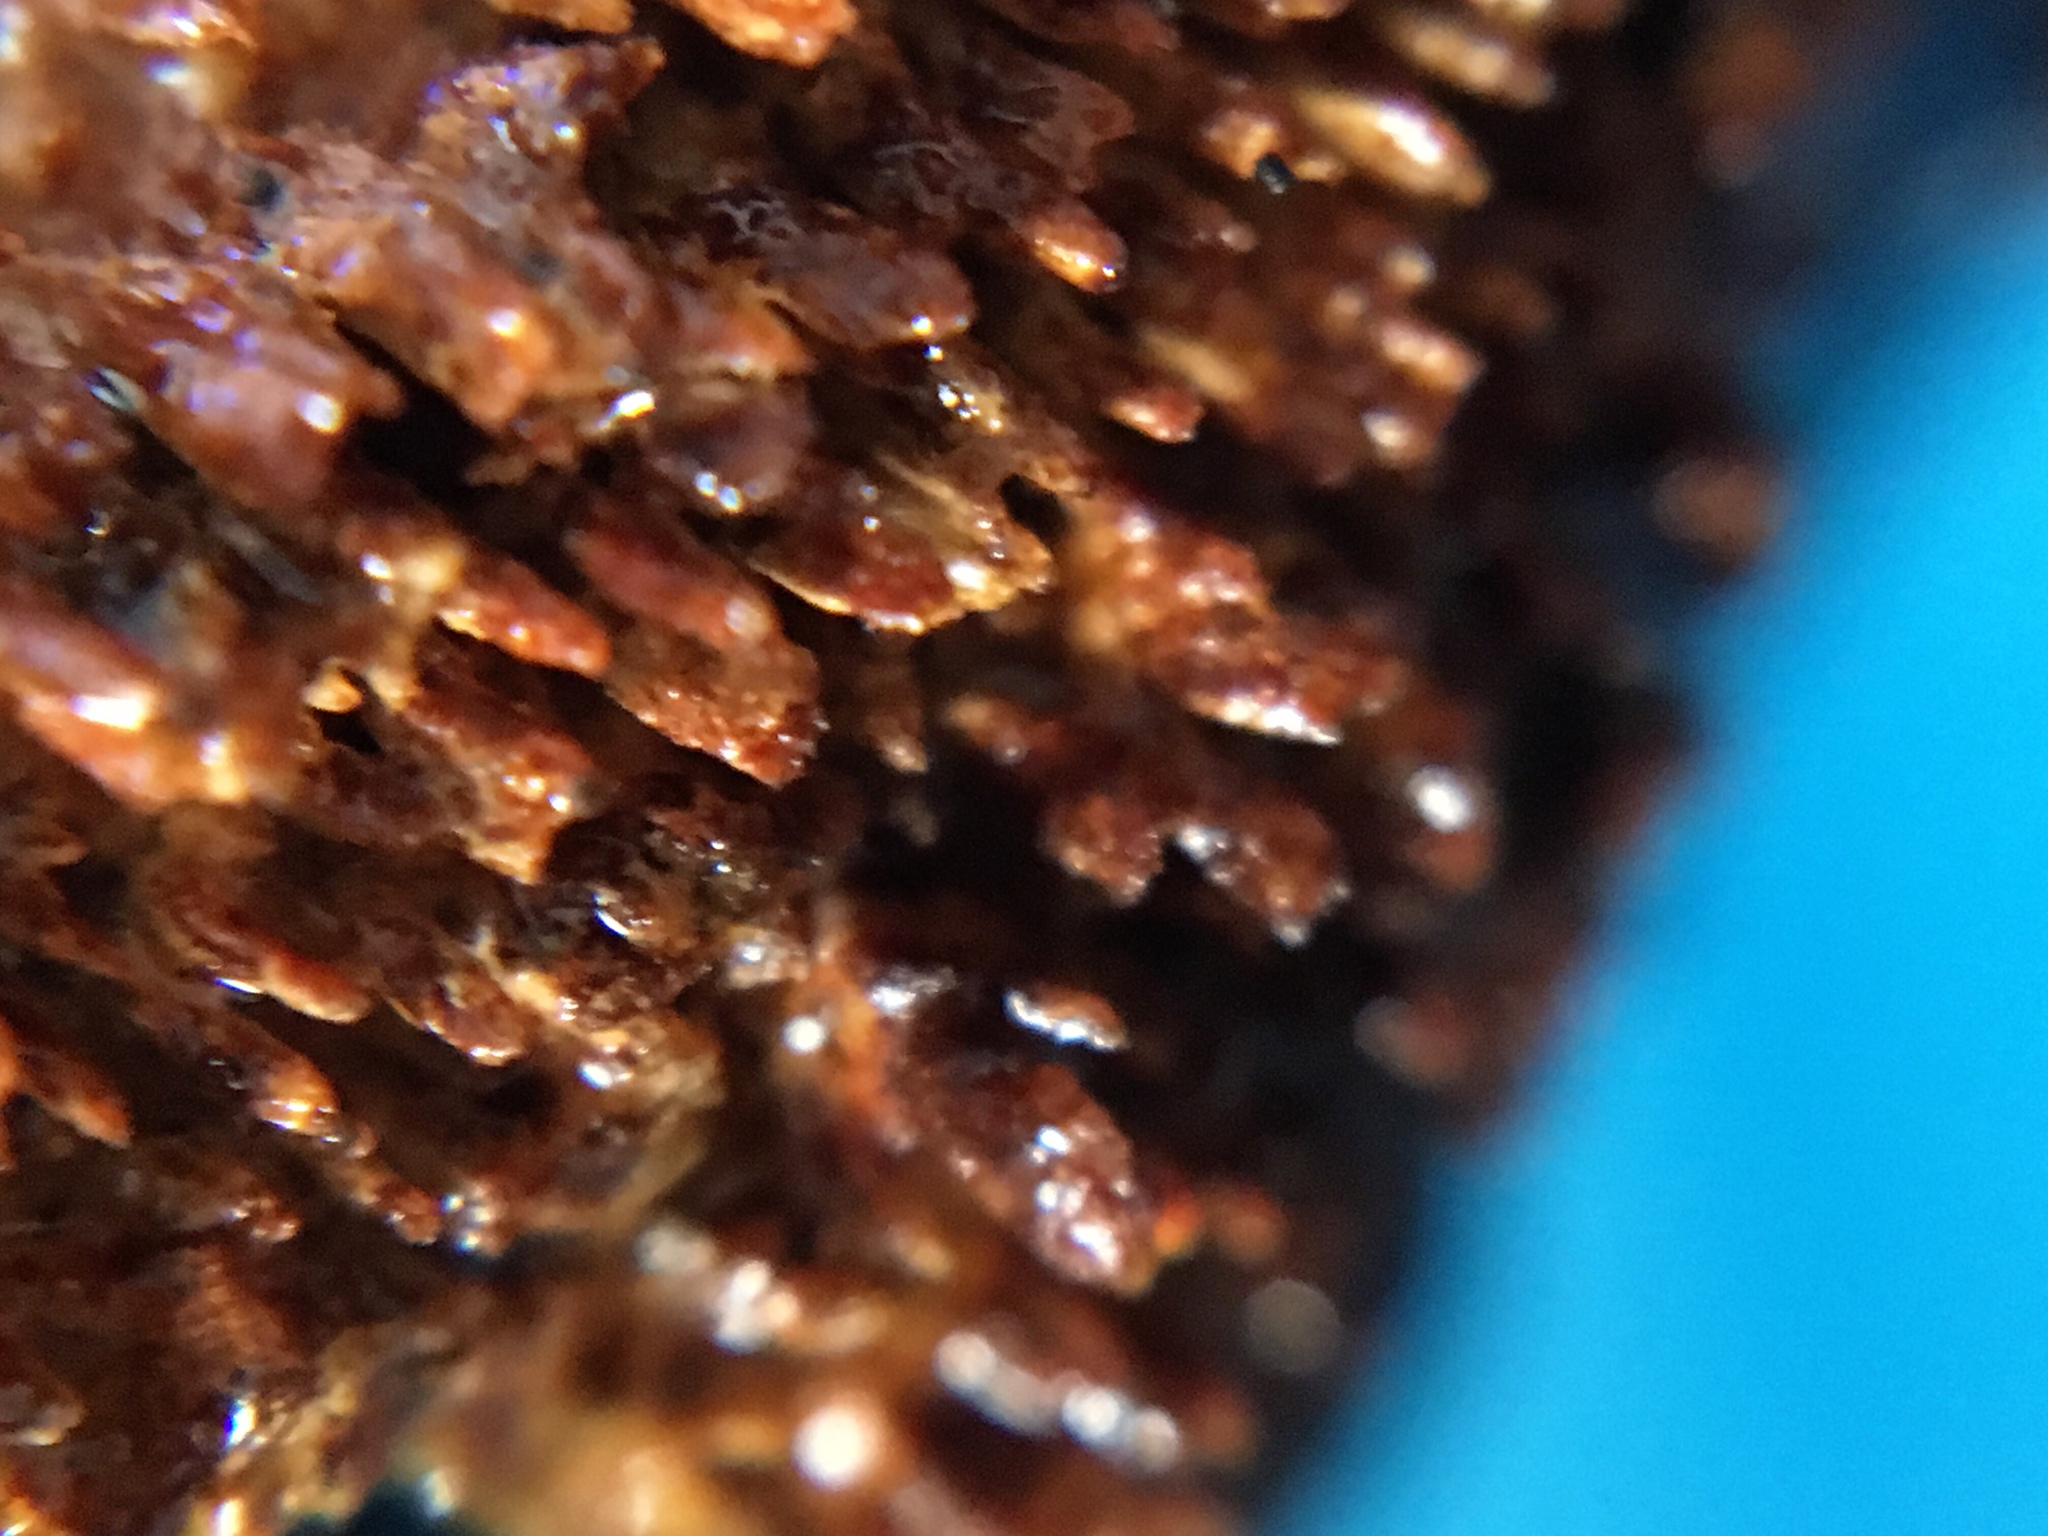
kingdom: Fungi
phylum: Basidiomycota
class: Agaricomycetes
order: Hymenochaetales
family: Hymenochaetaceae
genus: Hydnoporia
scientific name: Hydnoporia olivacea
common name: Brown-toothed crust fungus
